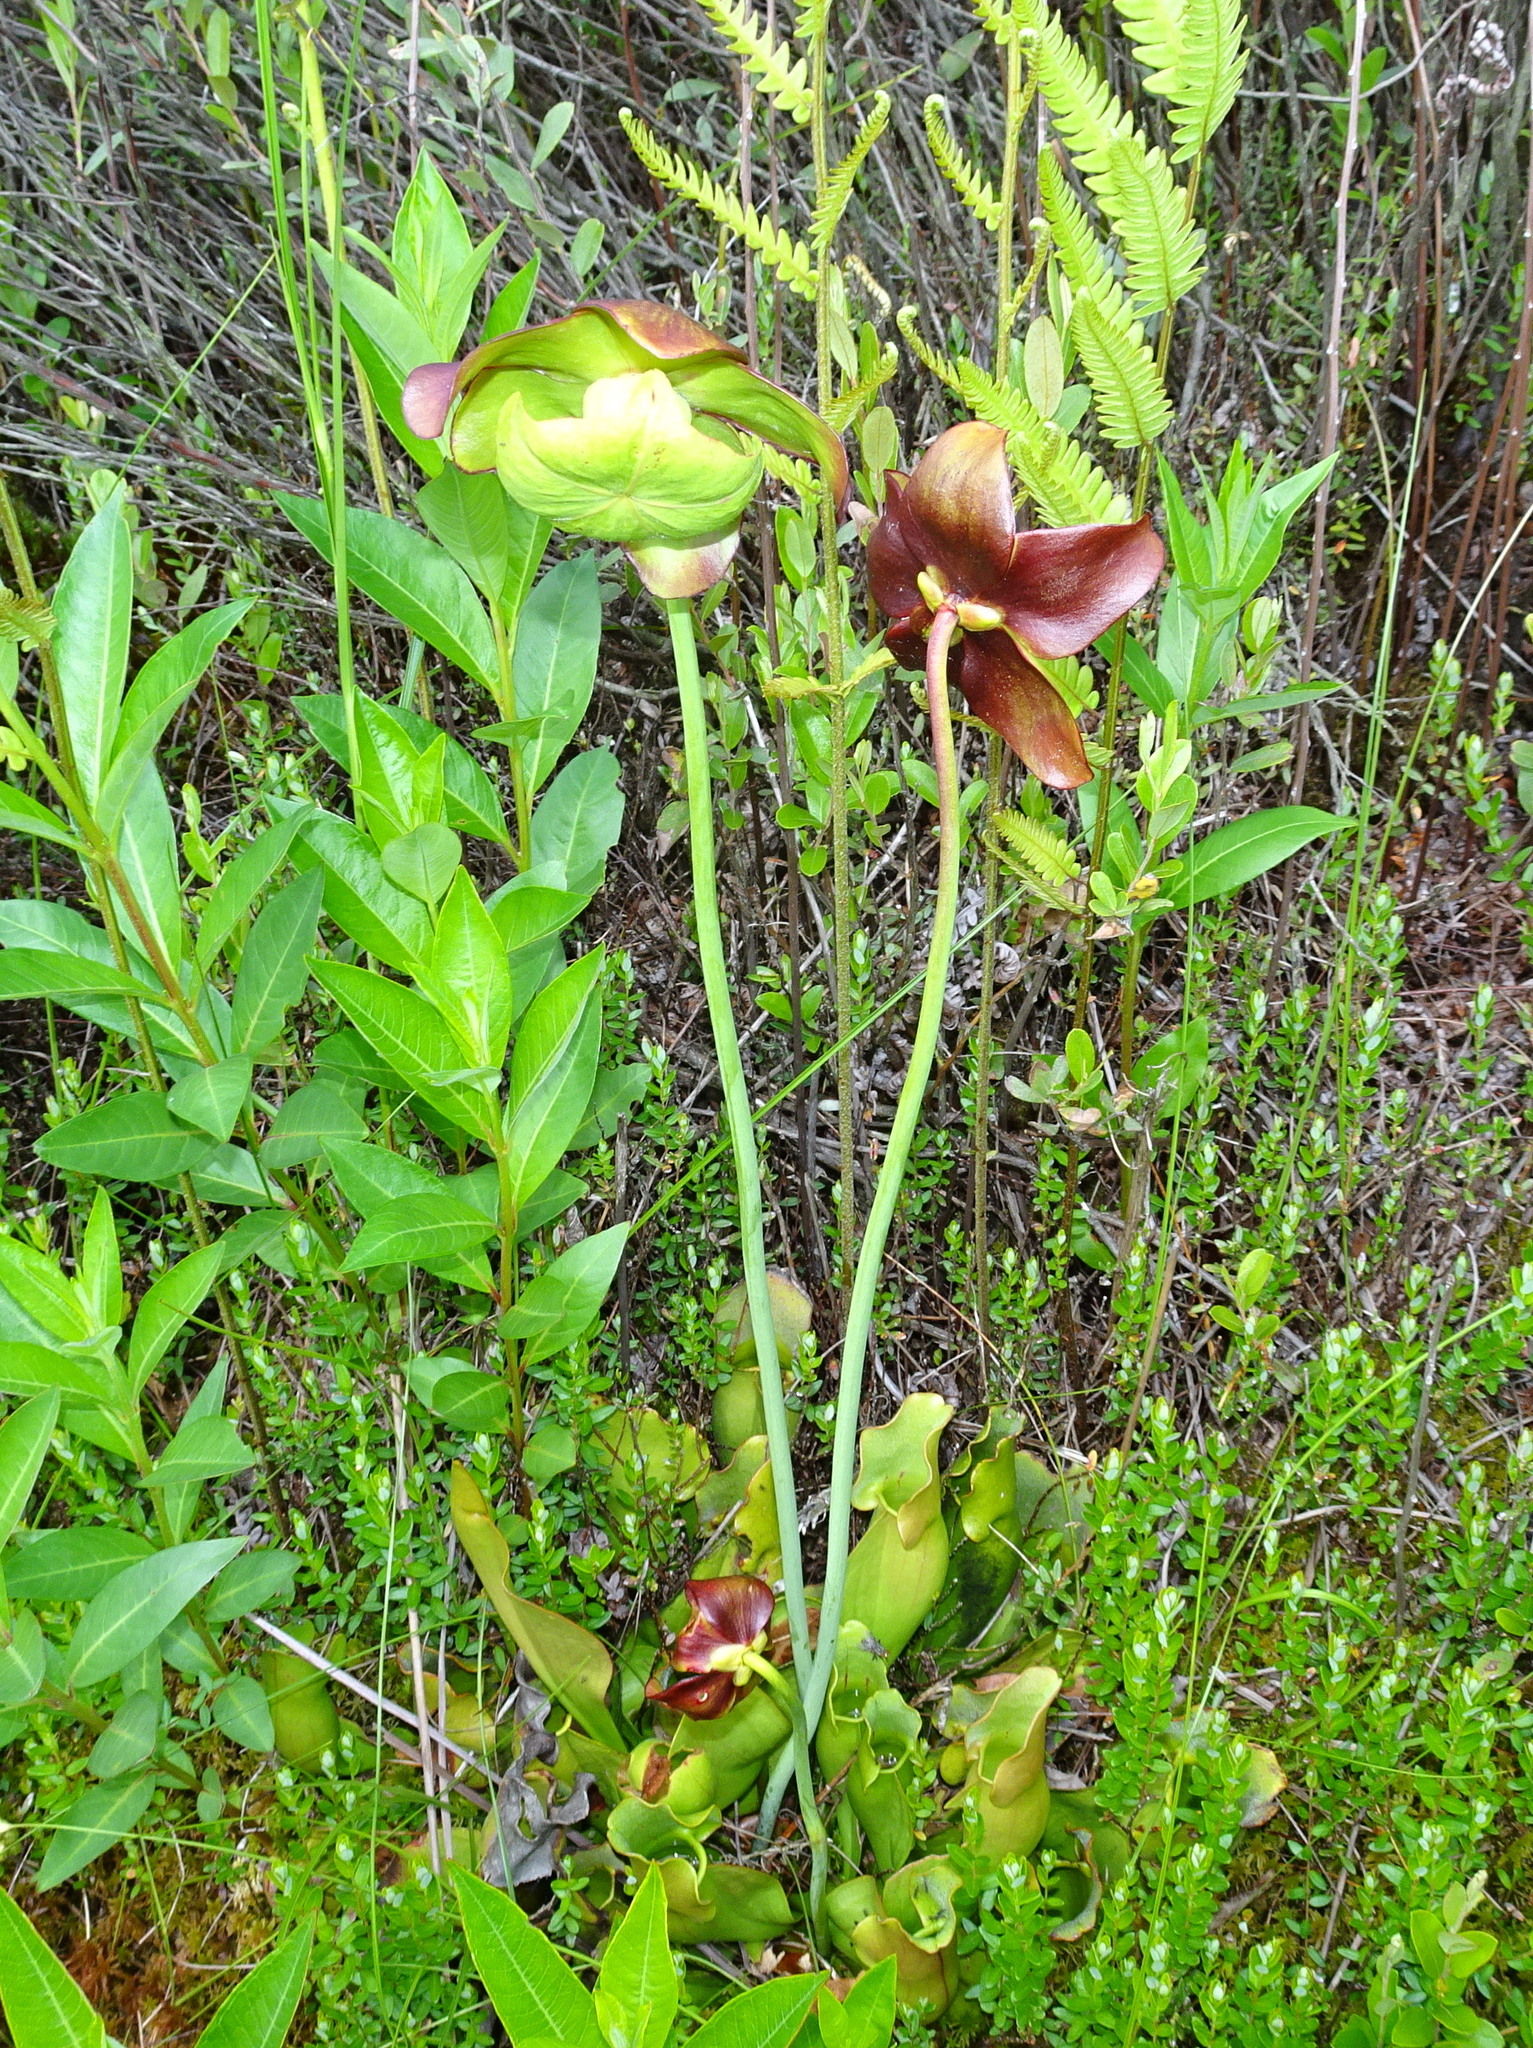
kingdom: Plantae
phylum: Tracheophyta
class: Magnoliopsida
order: Ericales
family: Sarraceniaceae
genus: Sarracenia
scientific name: Sarracenia purpurea
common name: Pitcherplant
